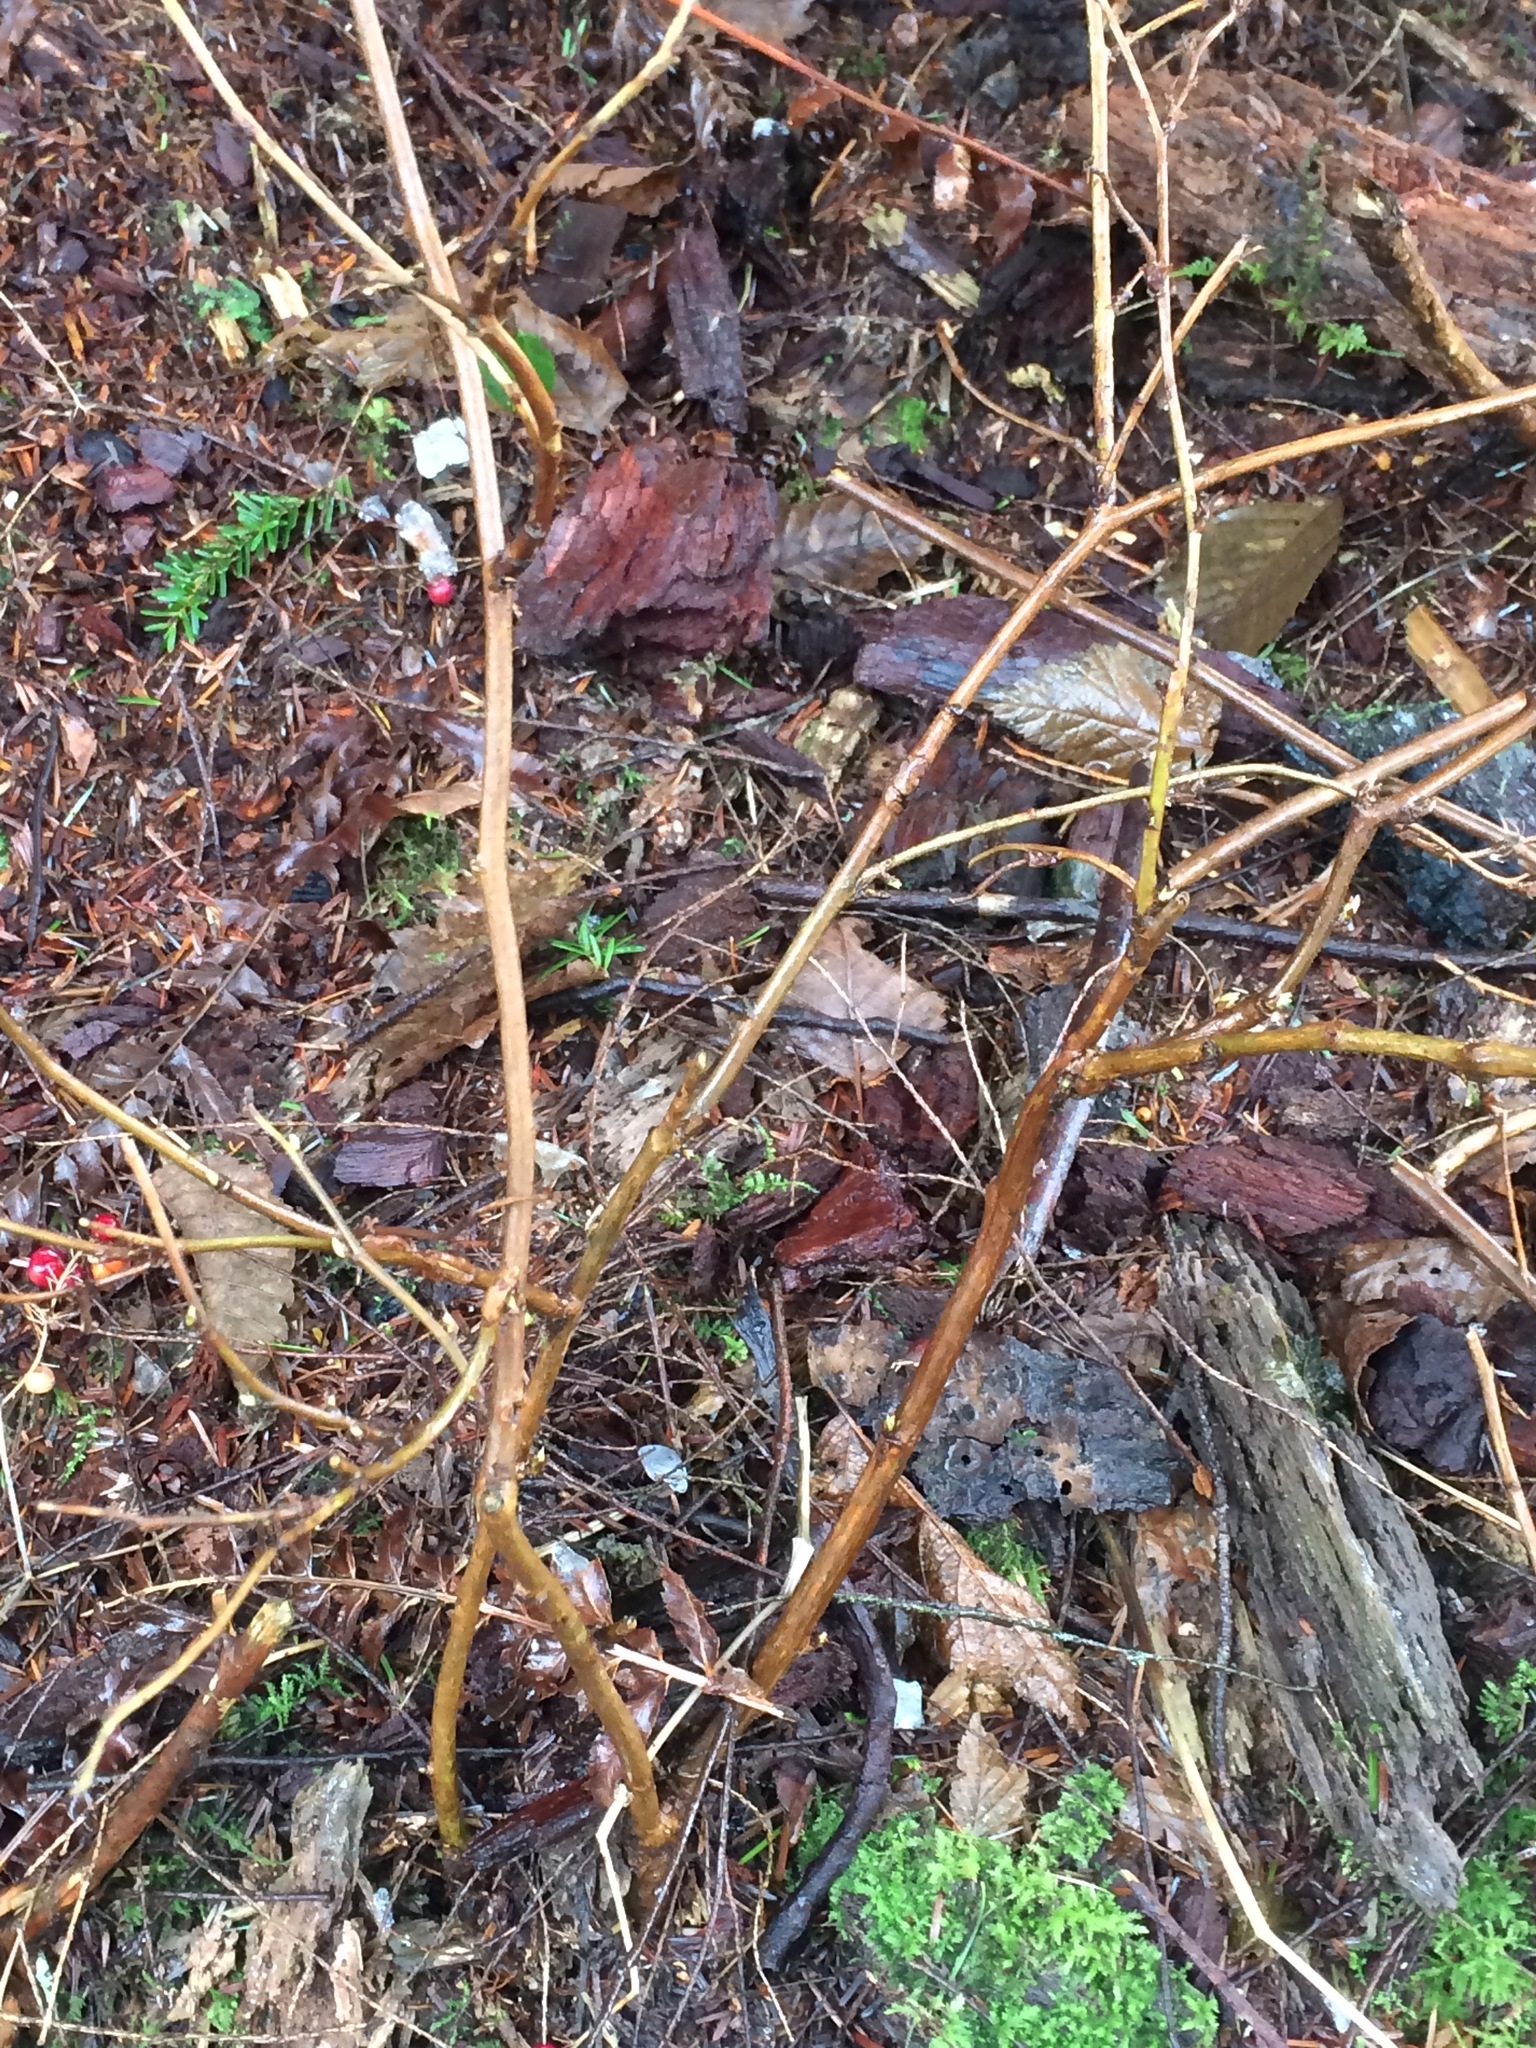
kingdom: Plantae
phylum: Tracheophyta
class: Magnoliopsida
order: Rosales
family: Rosaceae
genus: Rubus
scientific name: Rubus spectabilis
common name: Salmonberry
